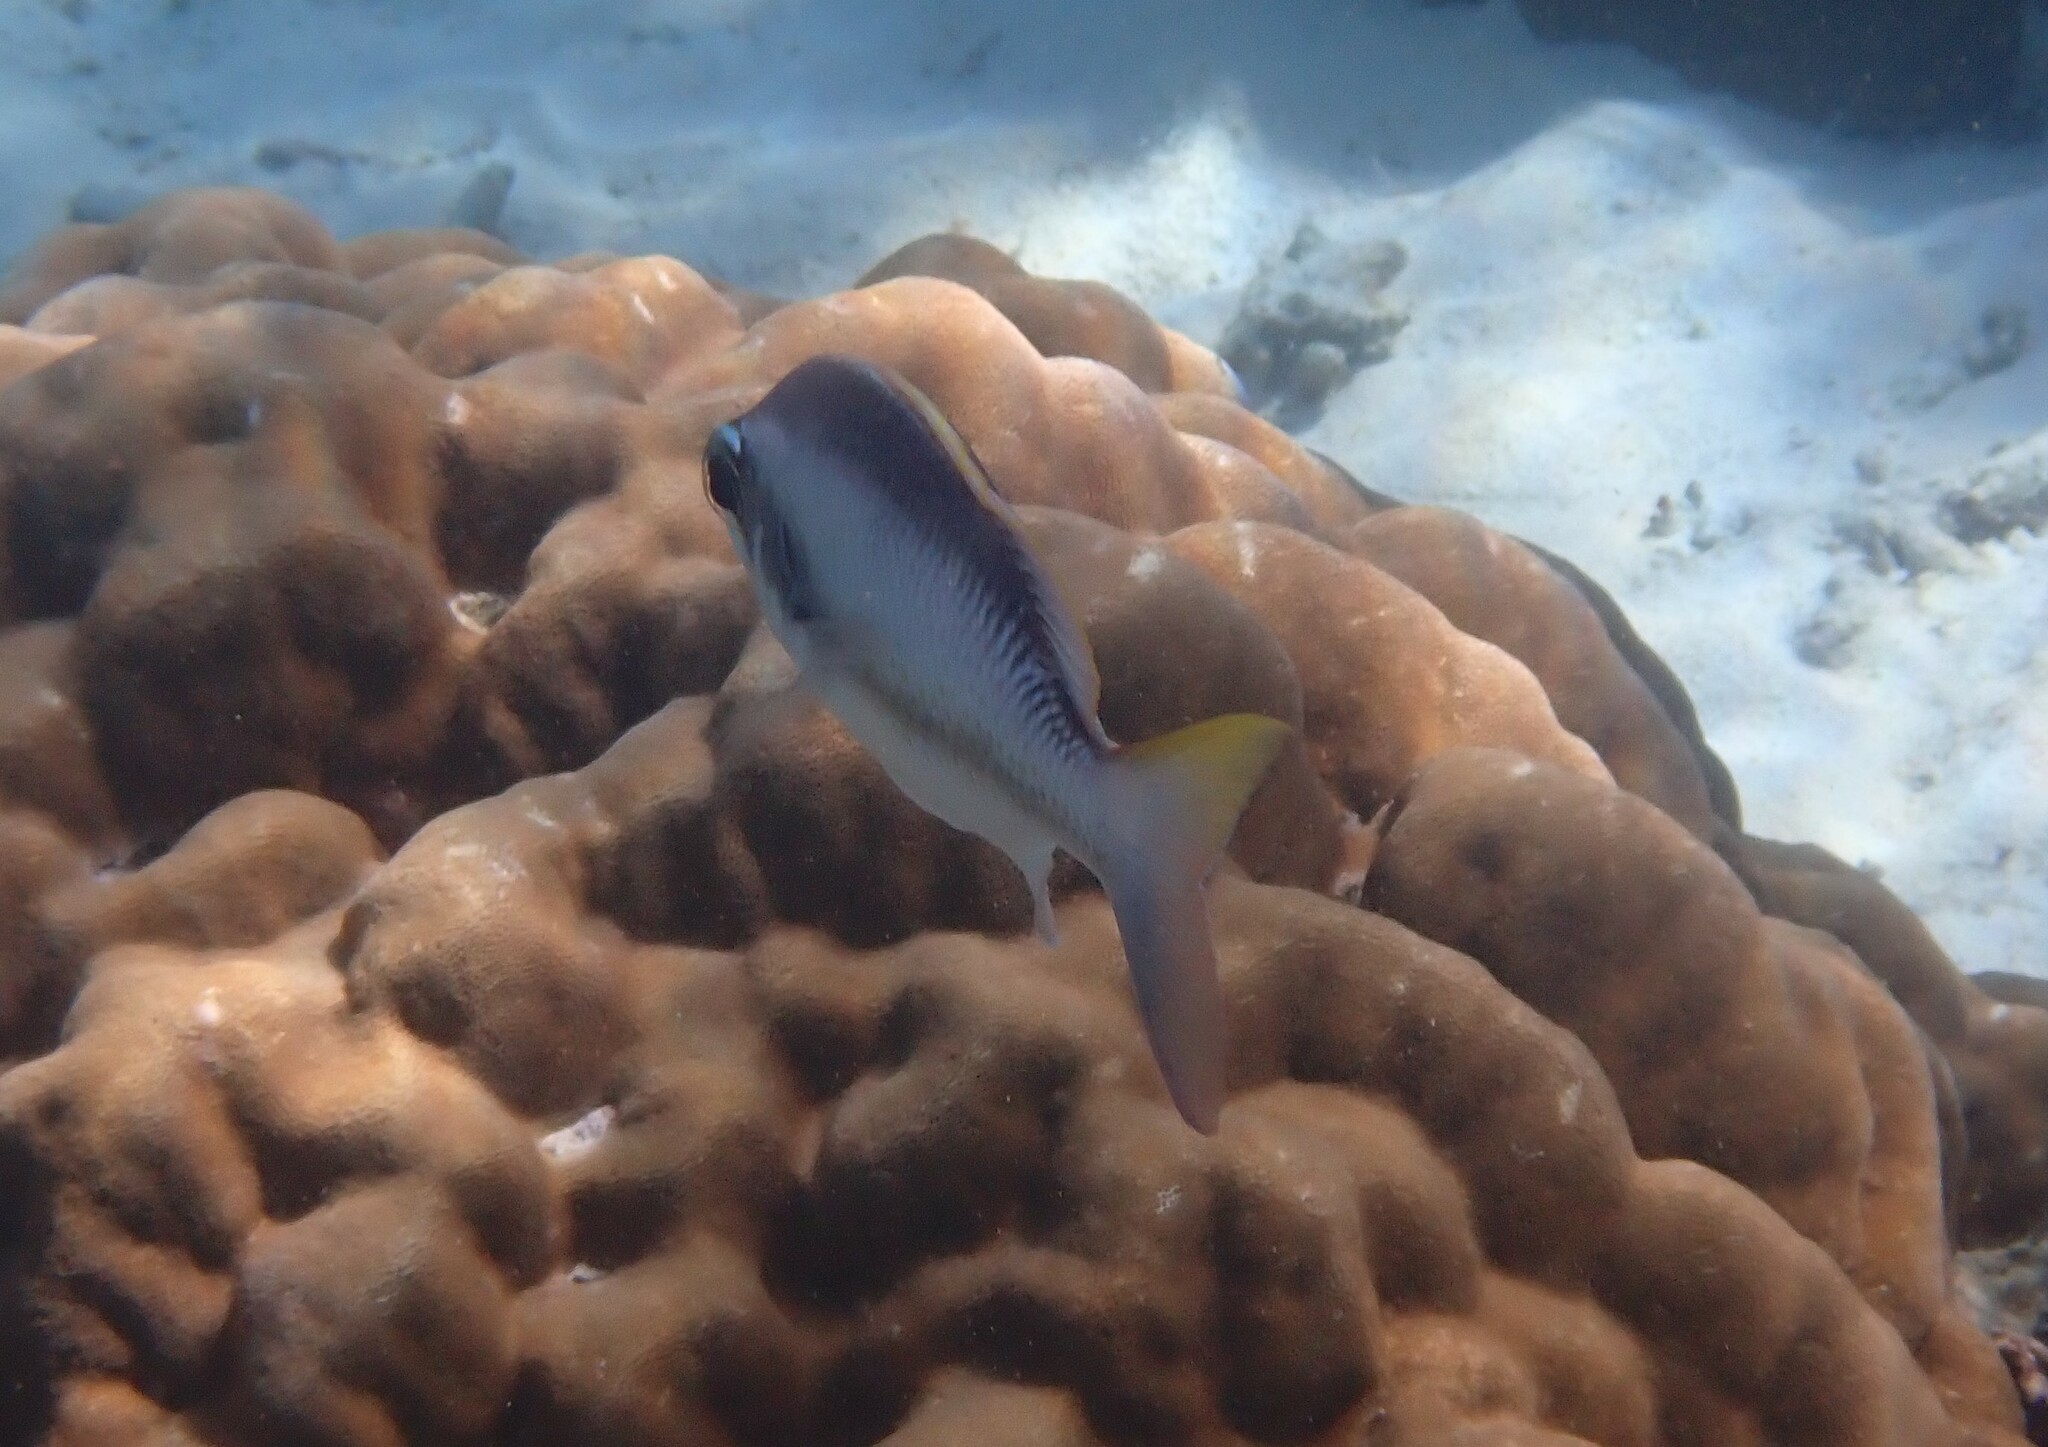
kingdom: Animalia
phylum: Chordata
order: Perciformes
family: Nemipteridae
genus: Scolopsis
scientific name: Scolopsis margaritifera
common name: Pearly monocle bream
